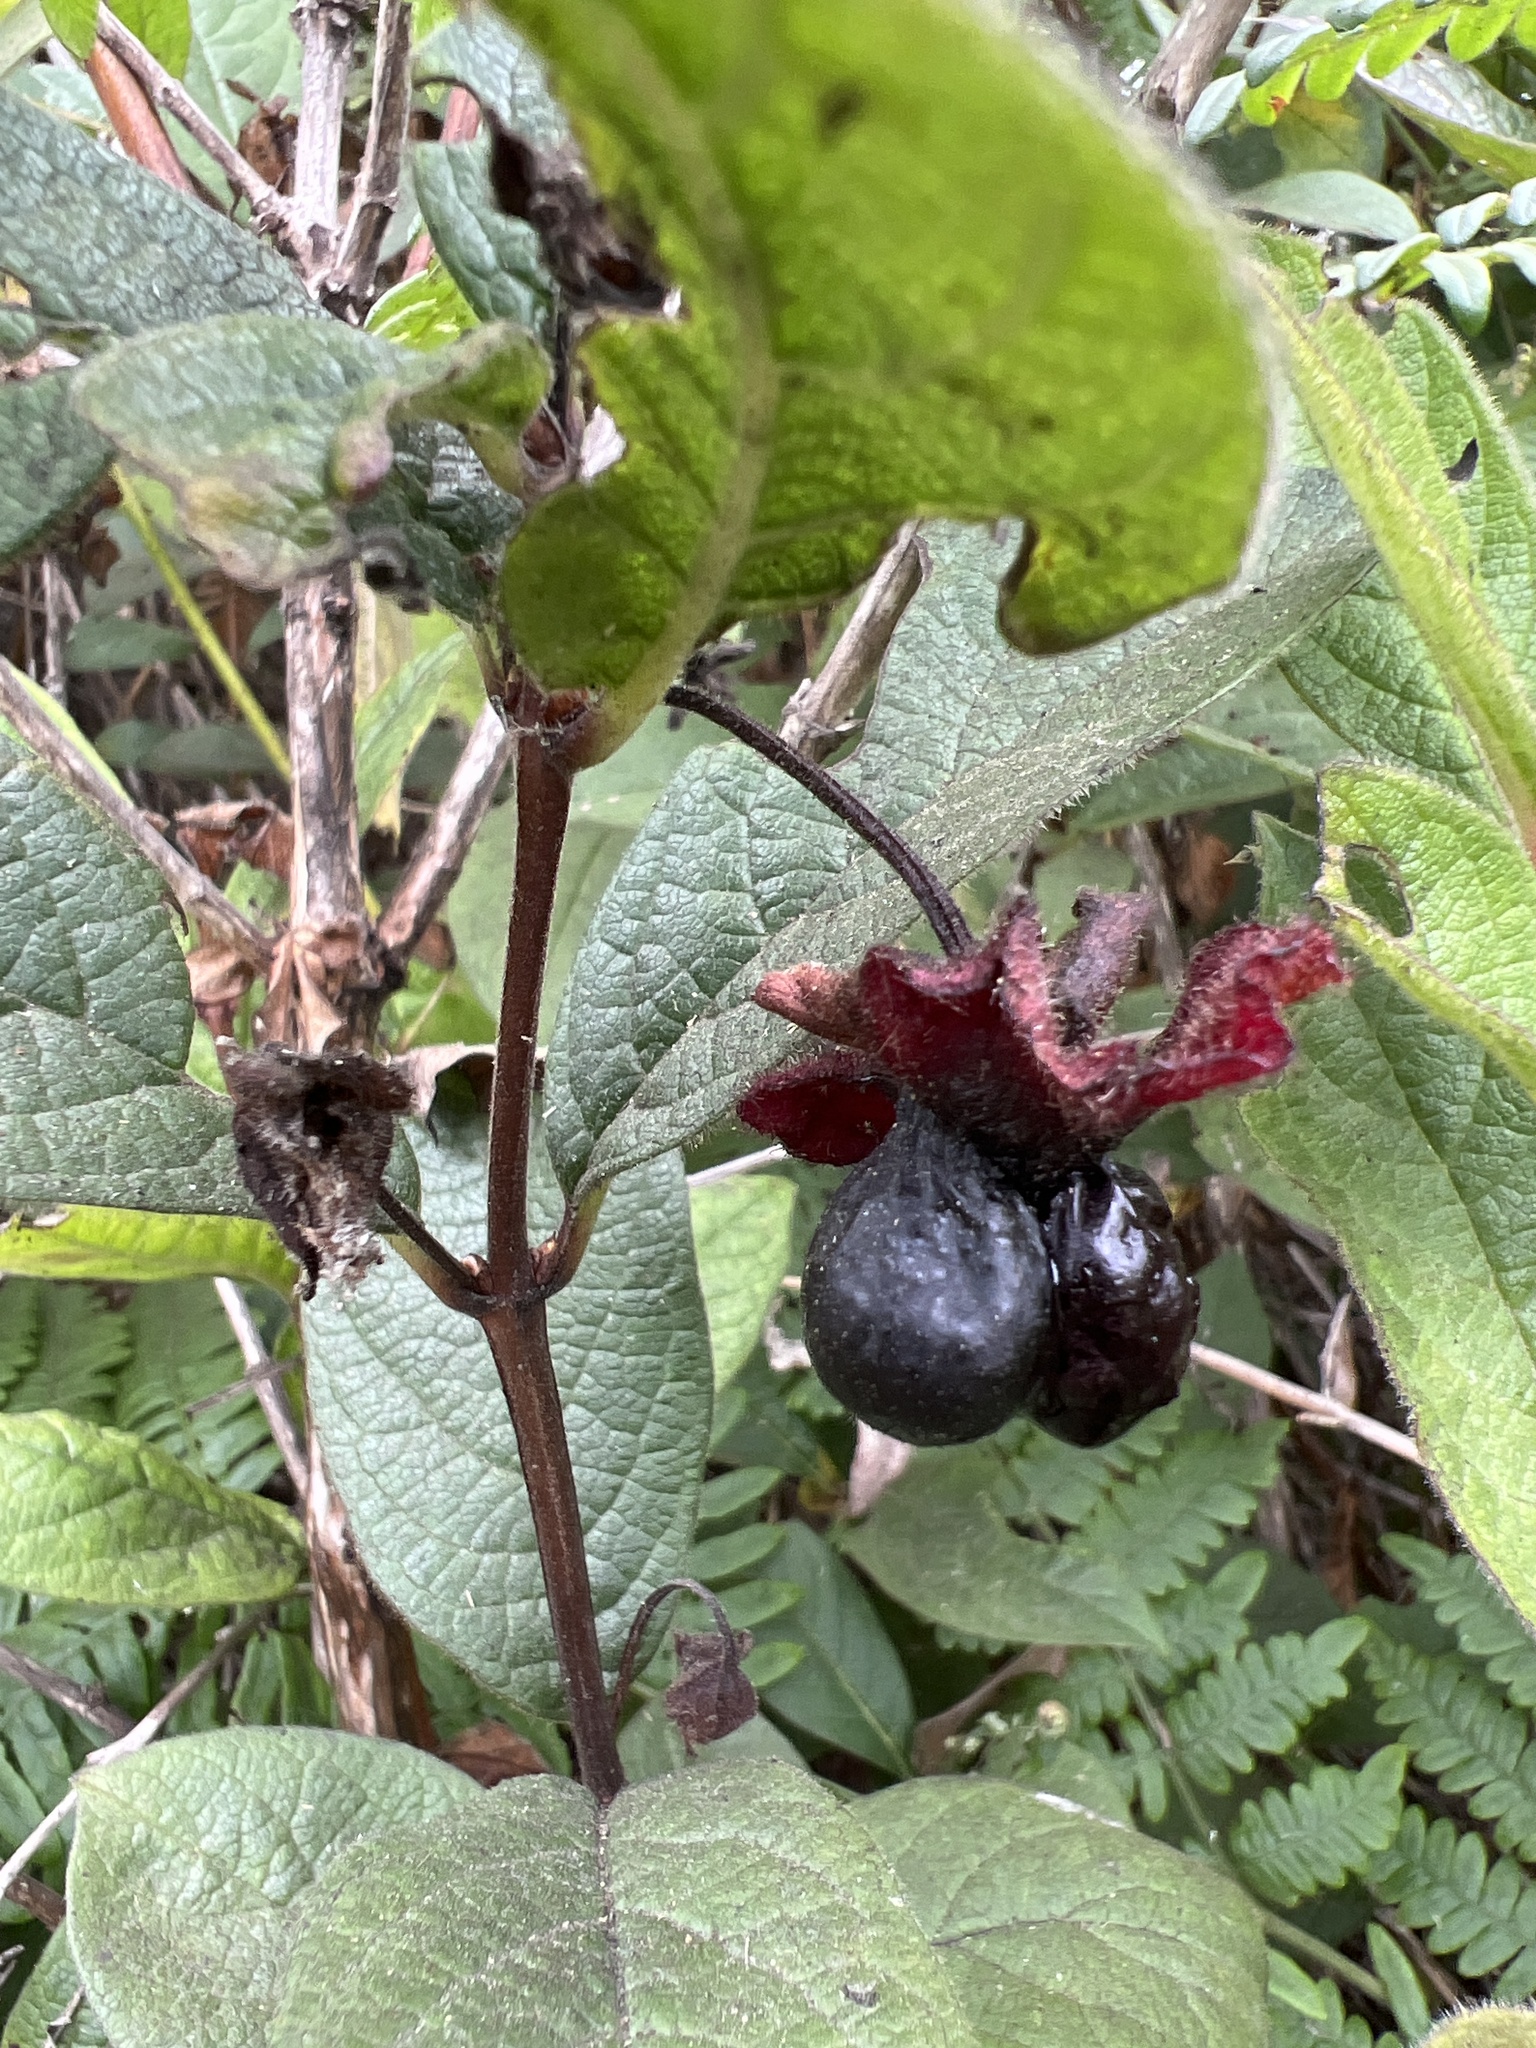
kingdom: Plantae
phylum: Tracheophyta
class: Magnoliopsida
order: Dipsacales
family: Caprifoliaceae
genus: Lonicera
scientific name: Lonicera involucrata
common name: Californian honeysuckle
